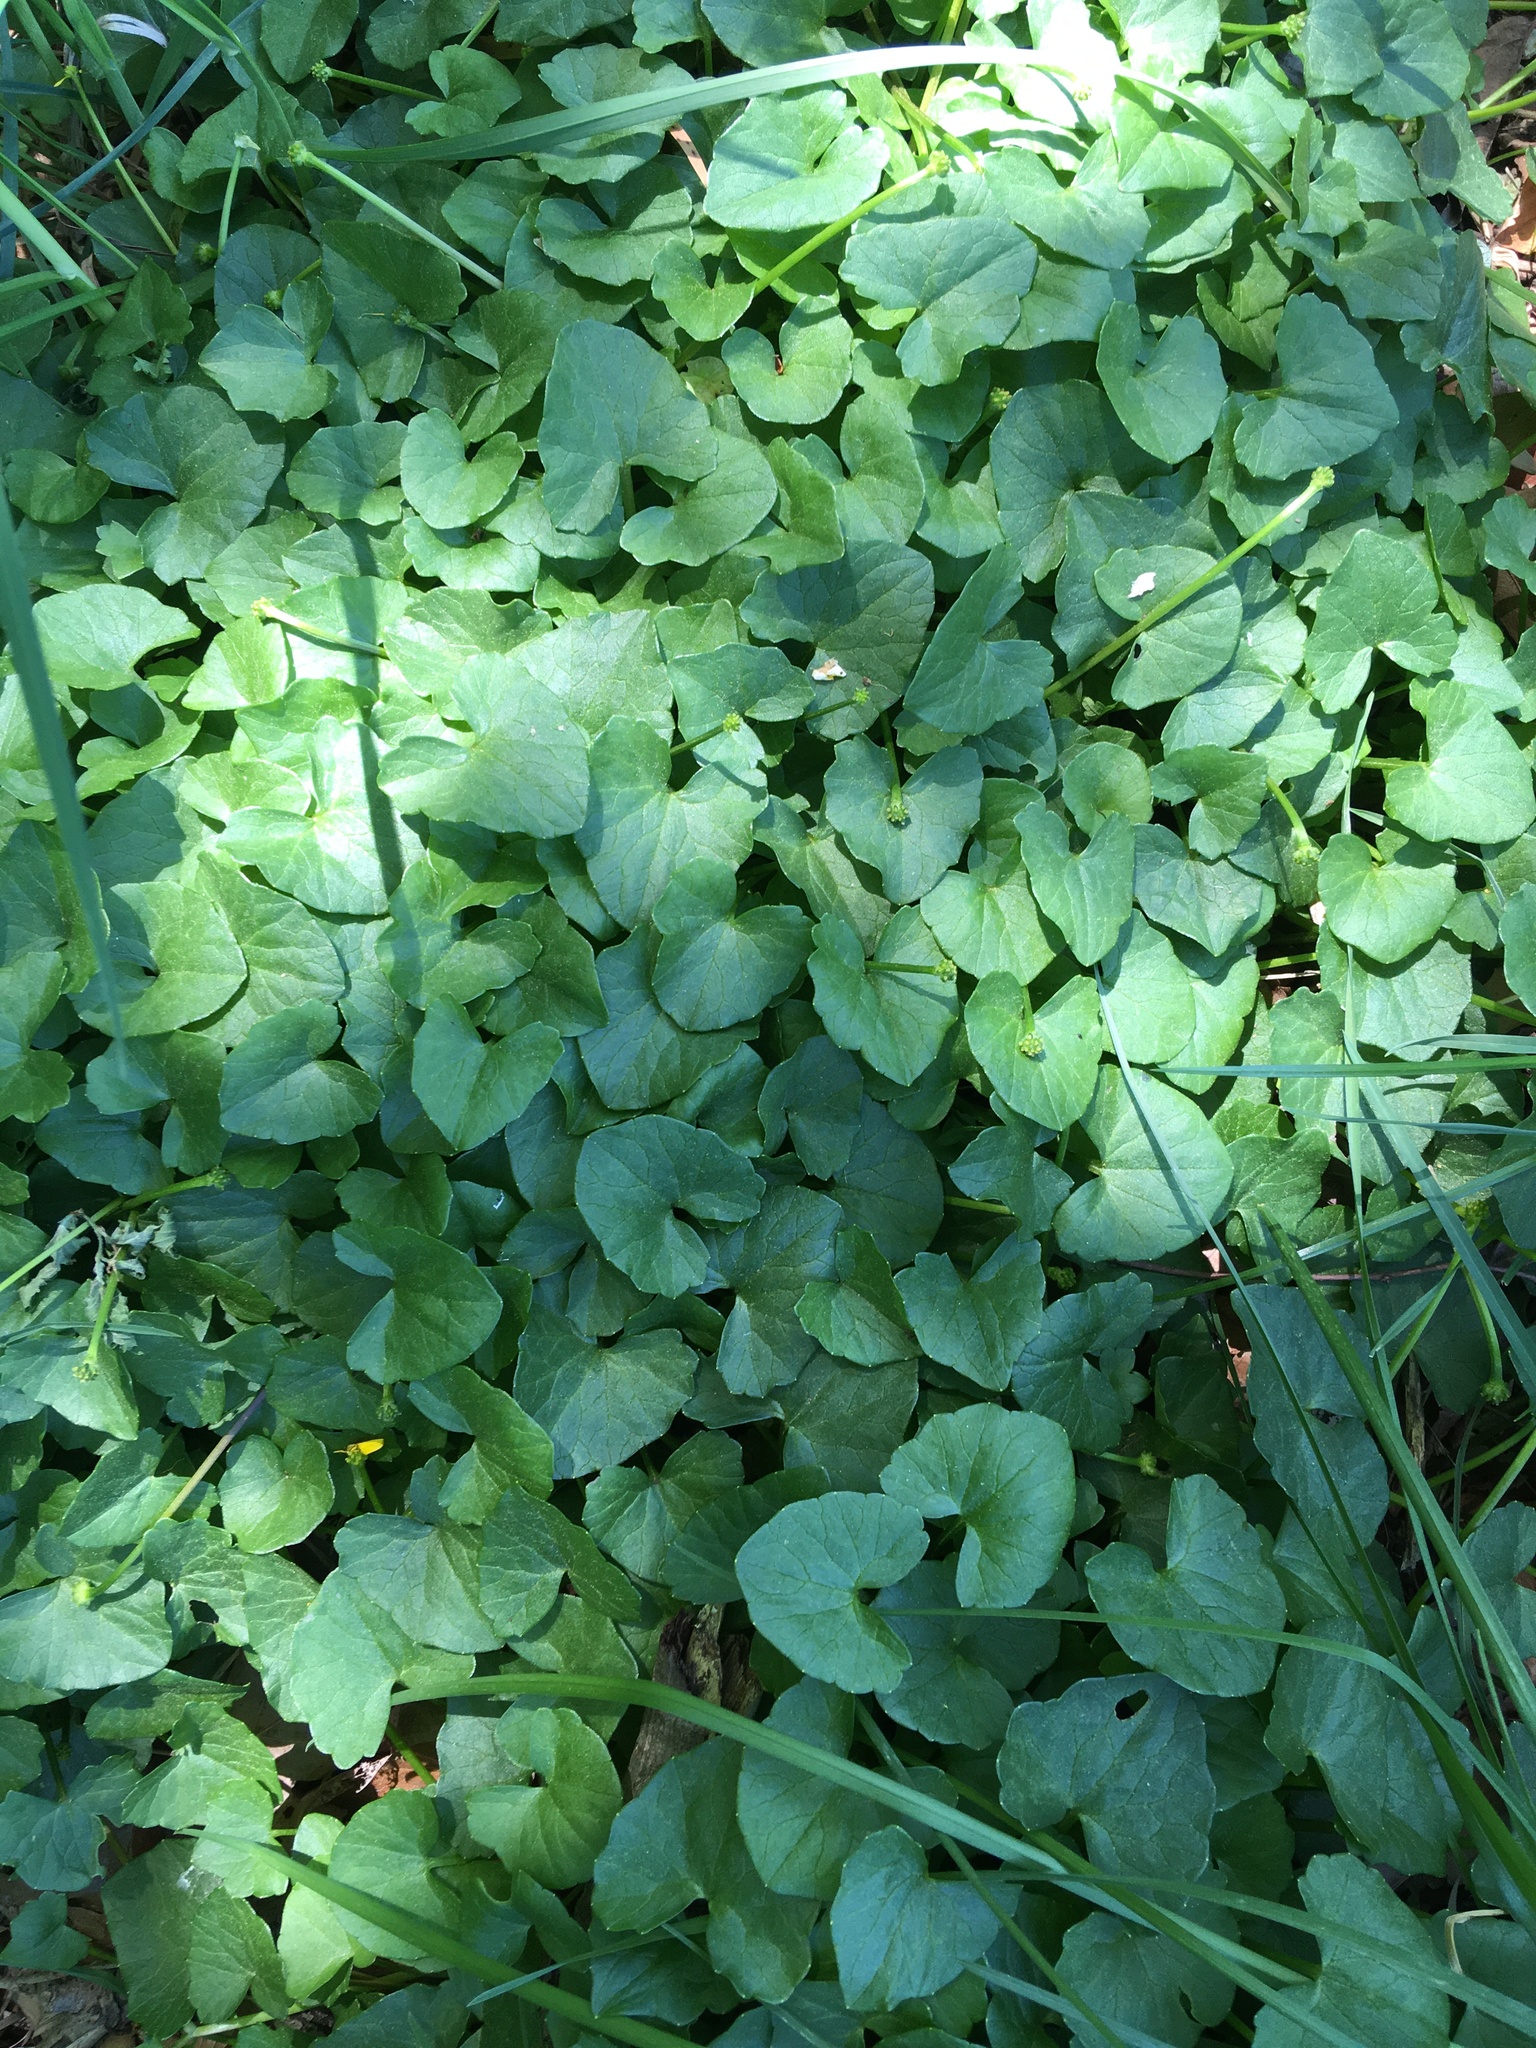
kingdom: Plantae
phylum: Tracheophyta
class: Magnoliopsida
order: Ranunculales
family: Ranunculaceae
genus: Ficaria
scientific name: Ficaria verna
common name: Lesser celandine
